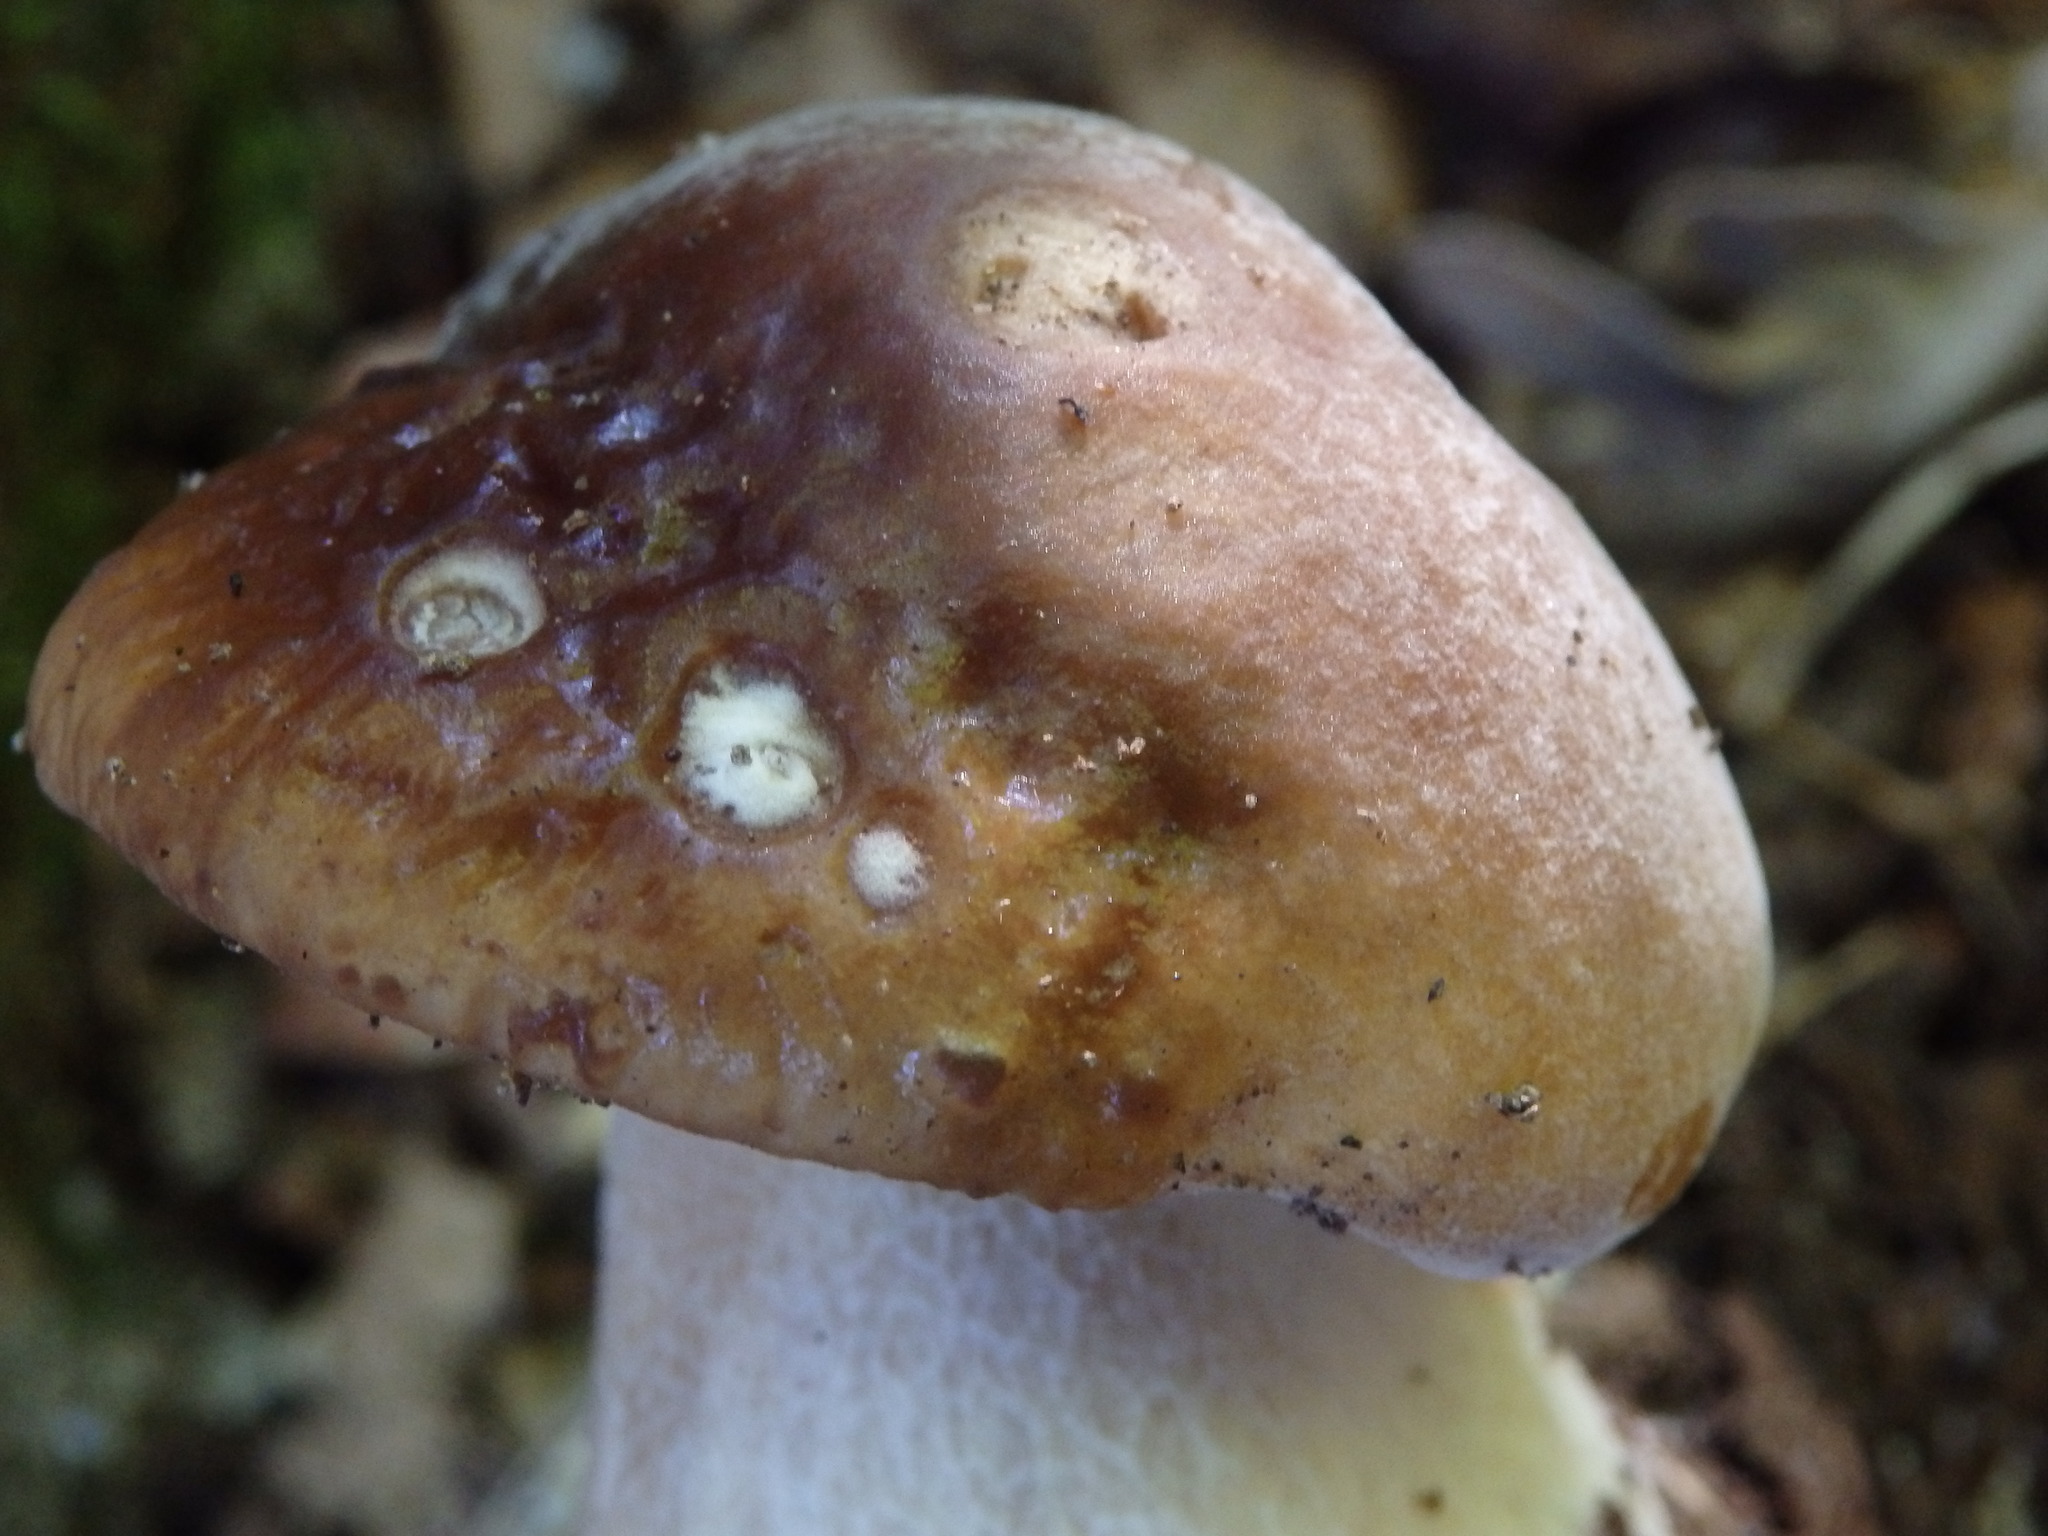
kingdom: Fungi
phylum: Basidiomycota
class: Agaricomycetes
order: Boletales
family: Boletaceae
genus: Boletus
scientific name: Boletus edulis
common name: Cep
